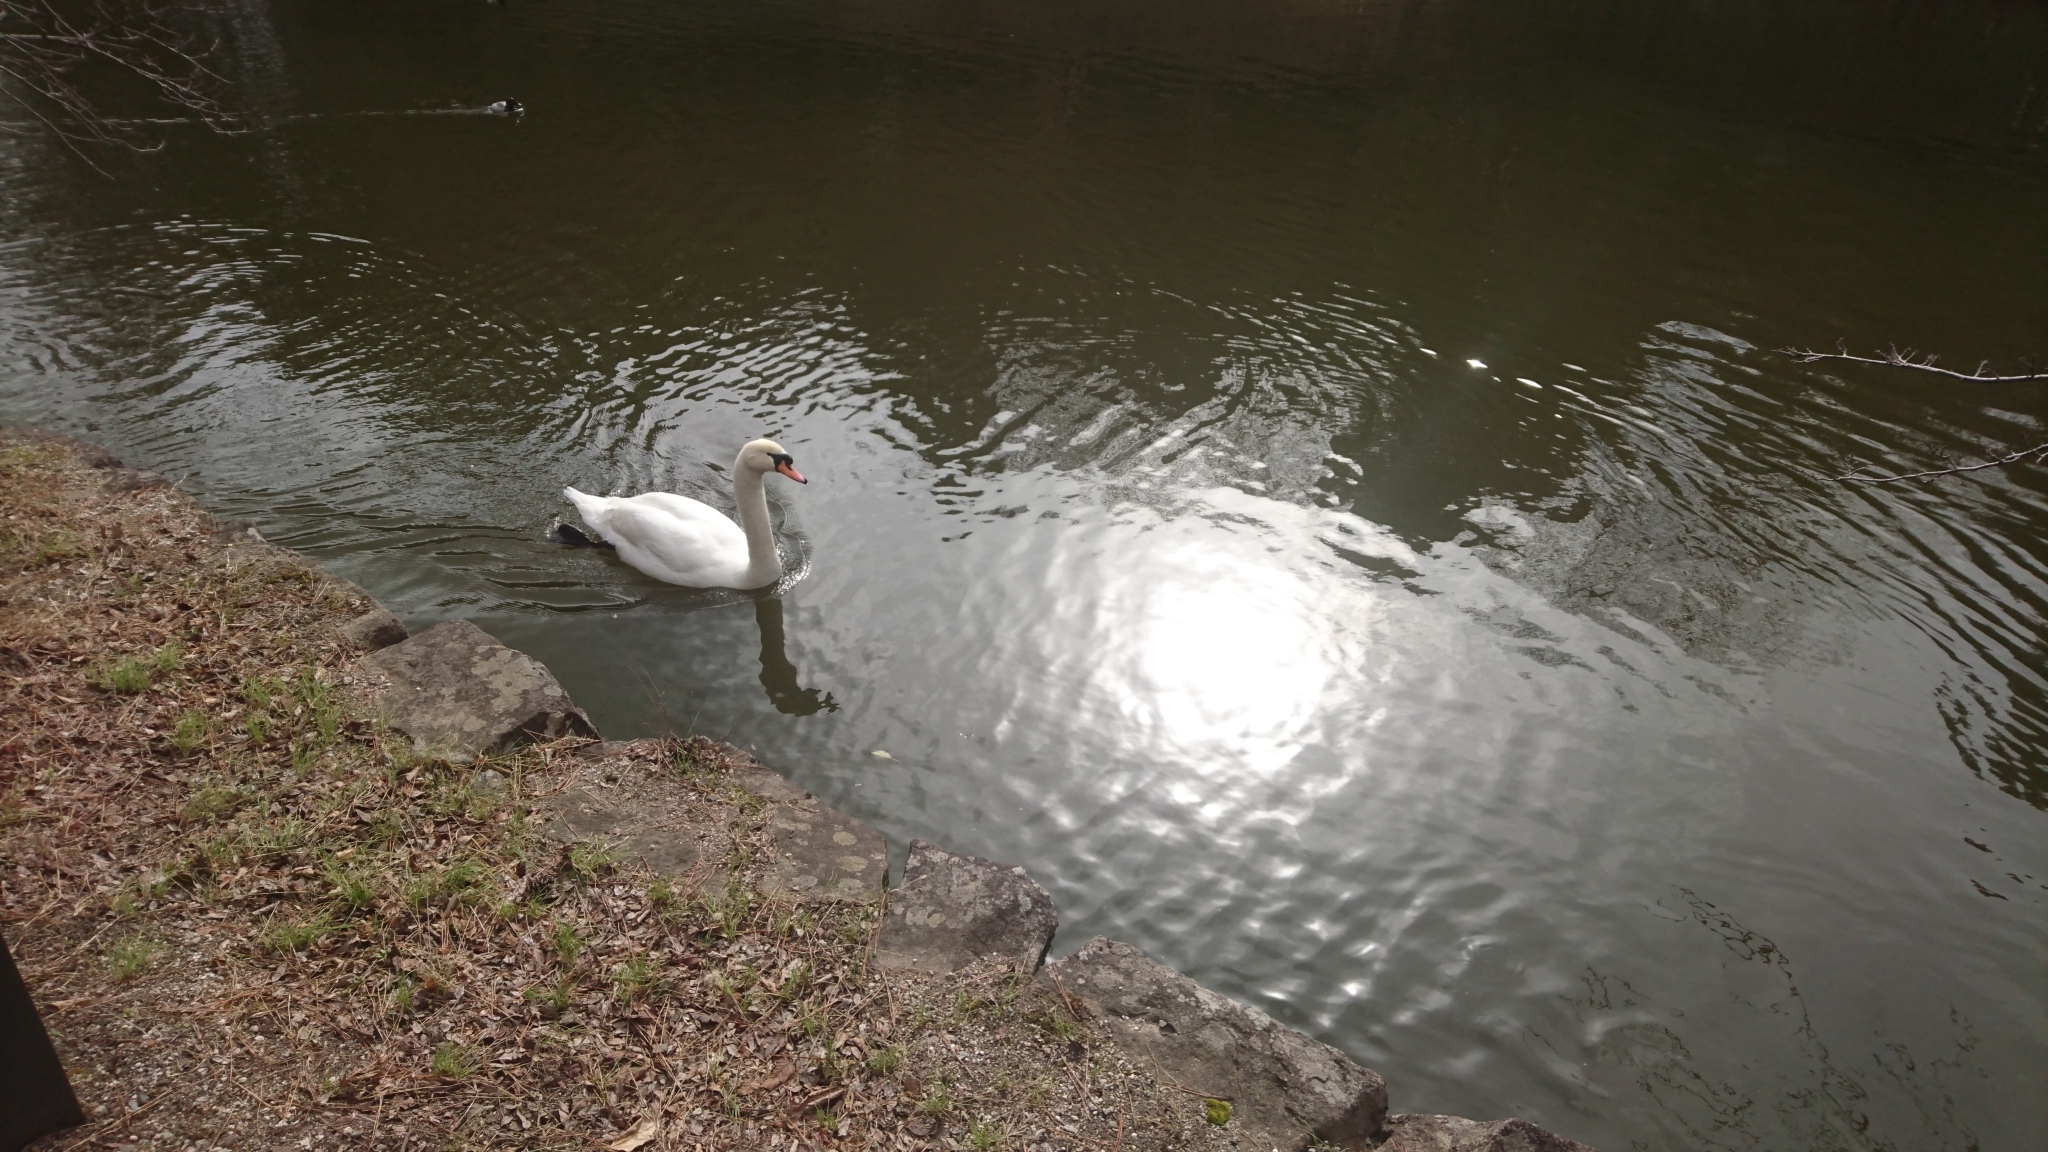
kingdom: Animalia
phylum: Chordata
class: Aves
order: Anseriformes
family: Anatidae
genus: Cygnus
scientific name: Cygnus olor
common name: Mute swan
